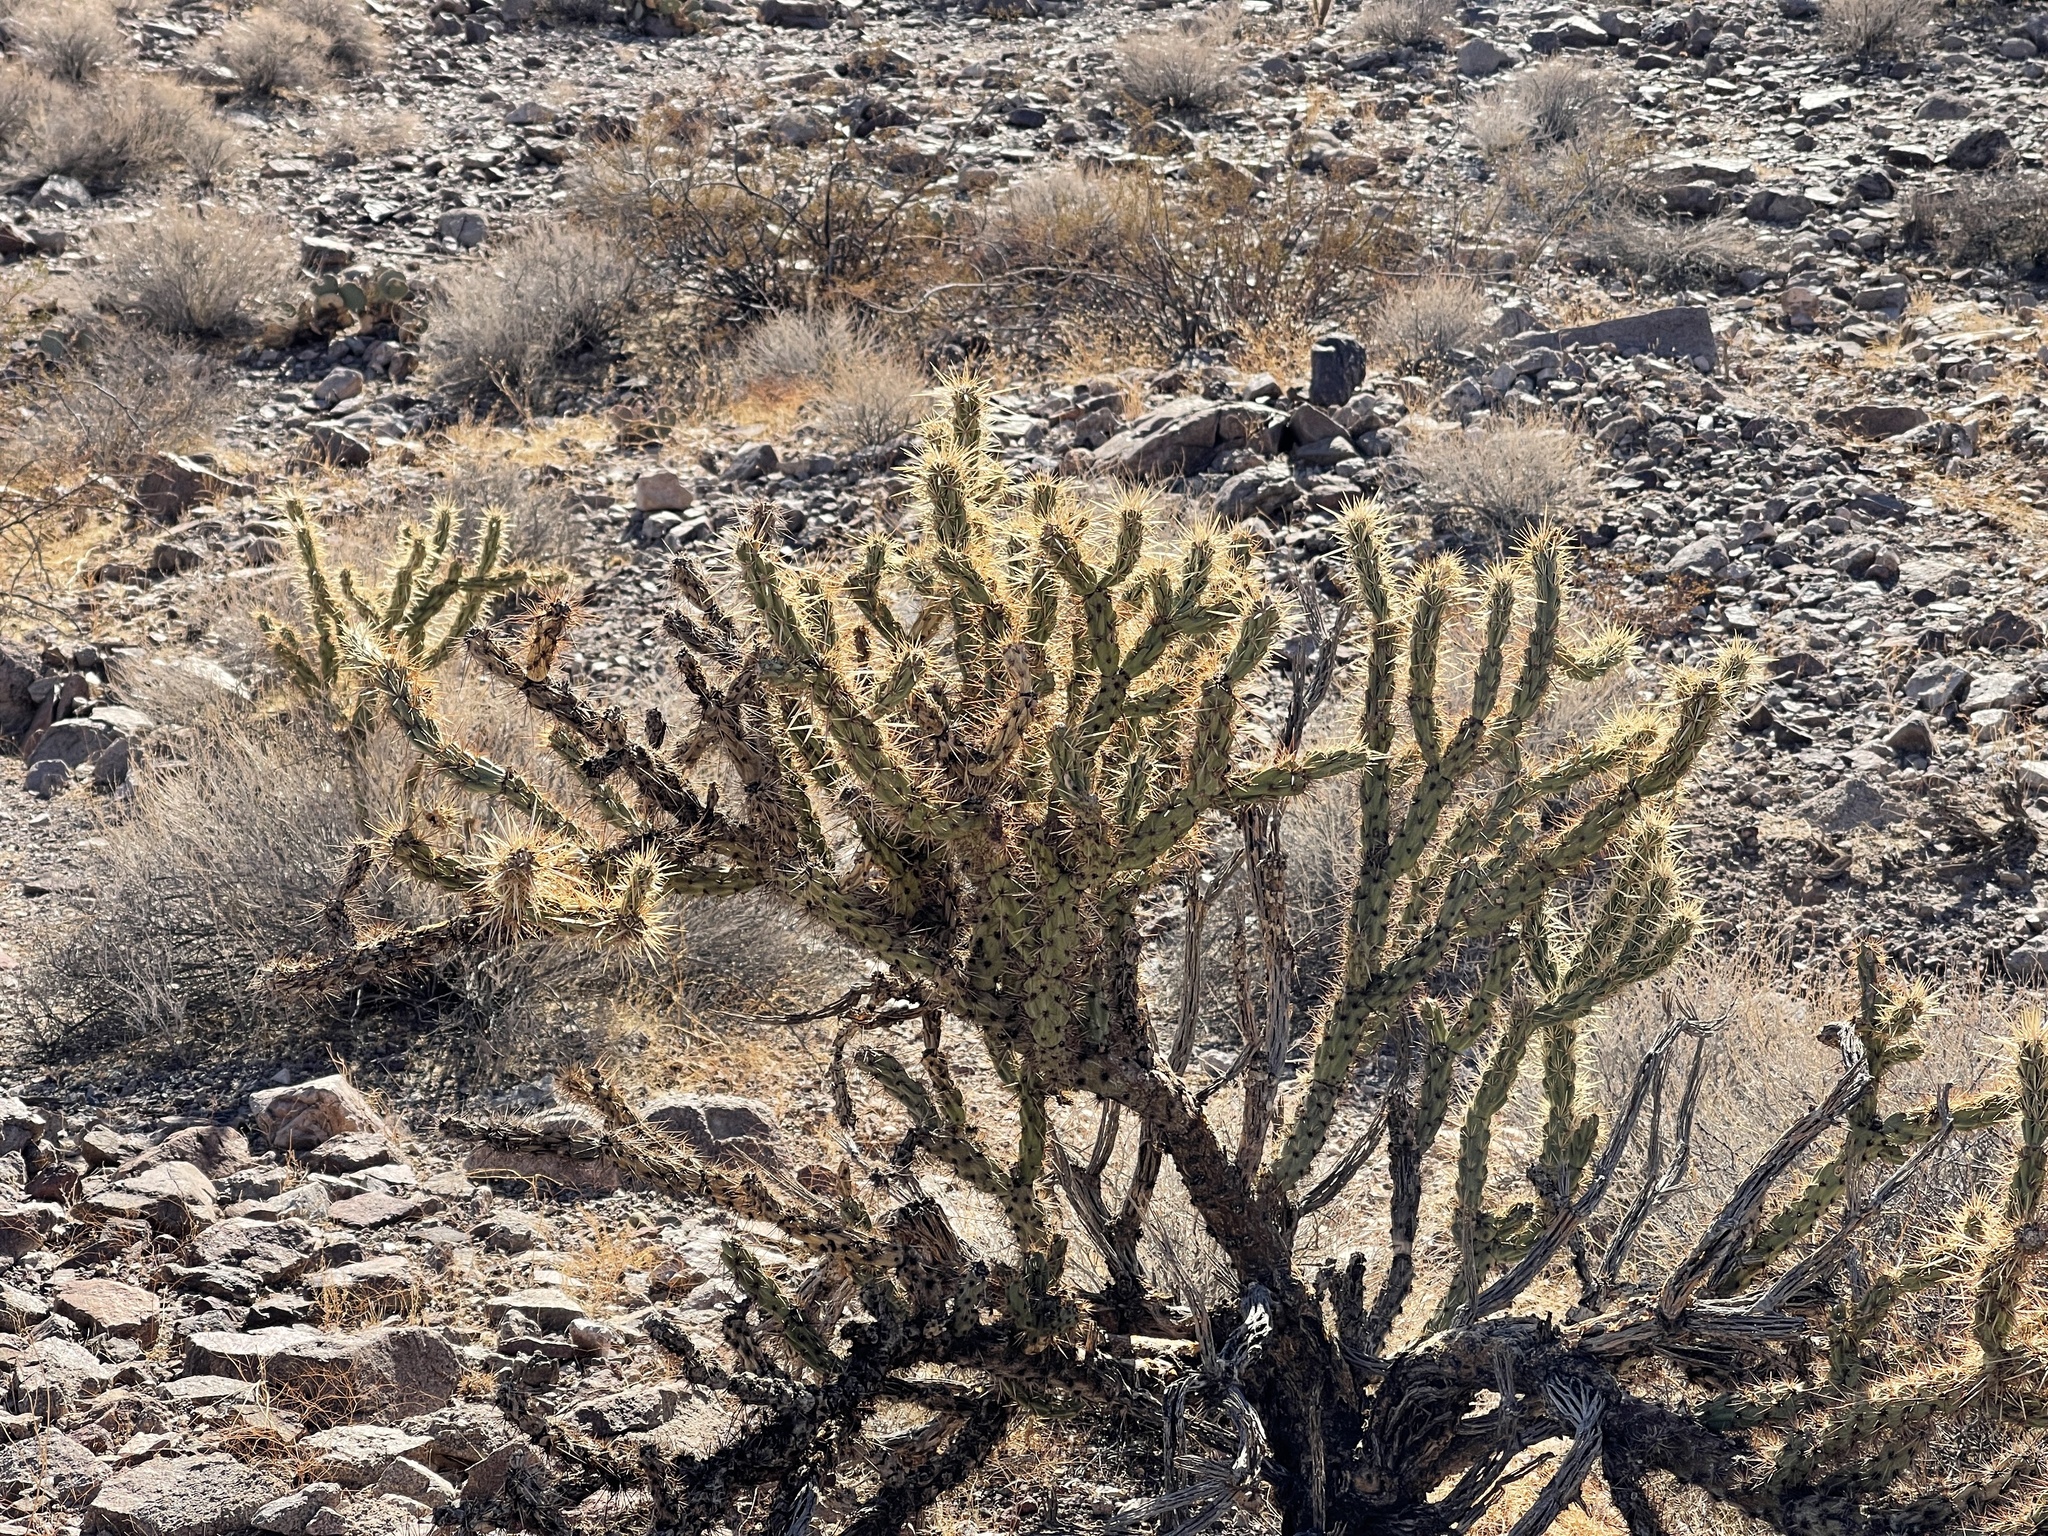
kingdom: Plantae
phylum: Tracheophyta
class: Magnoliopsida
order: Caryophyllales
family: Cactaceae
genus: Cylindropuntia
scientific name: Cylindropuntia acanthocarpa
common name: Buckhorn cholla
